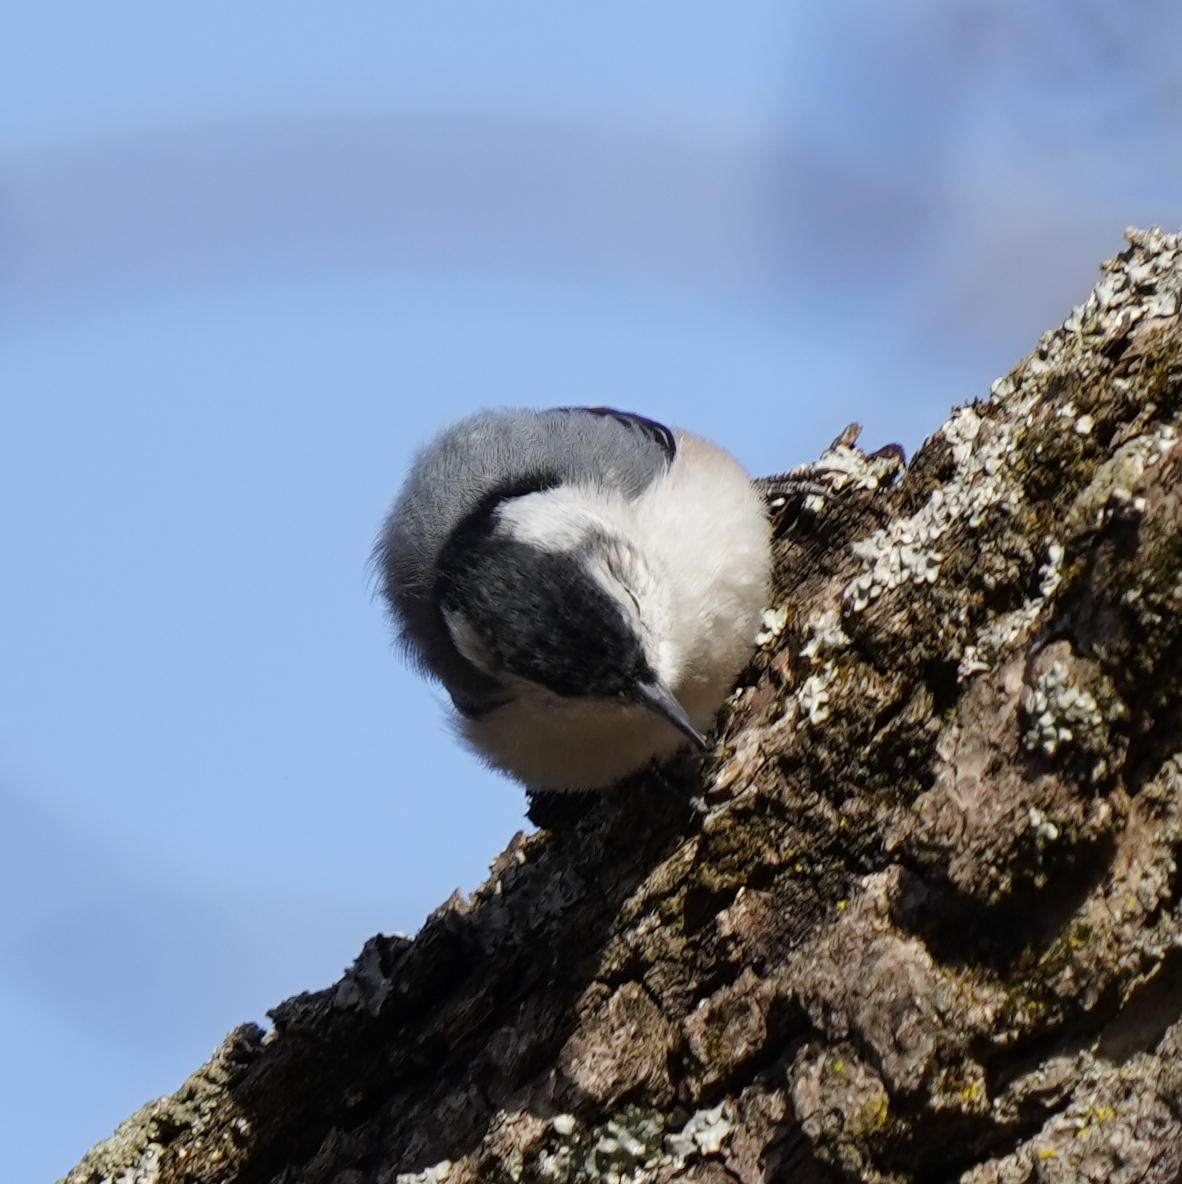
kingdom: Animalia
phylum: Chordata
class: Aves
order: Passeriformes
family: Sittidae
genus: Sitta
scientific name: Sitta carolinensis
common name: White-breasted nuthatch
